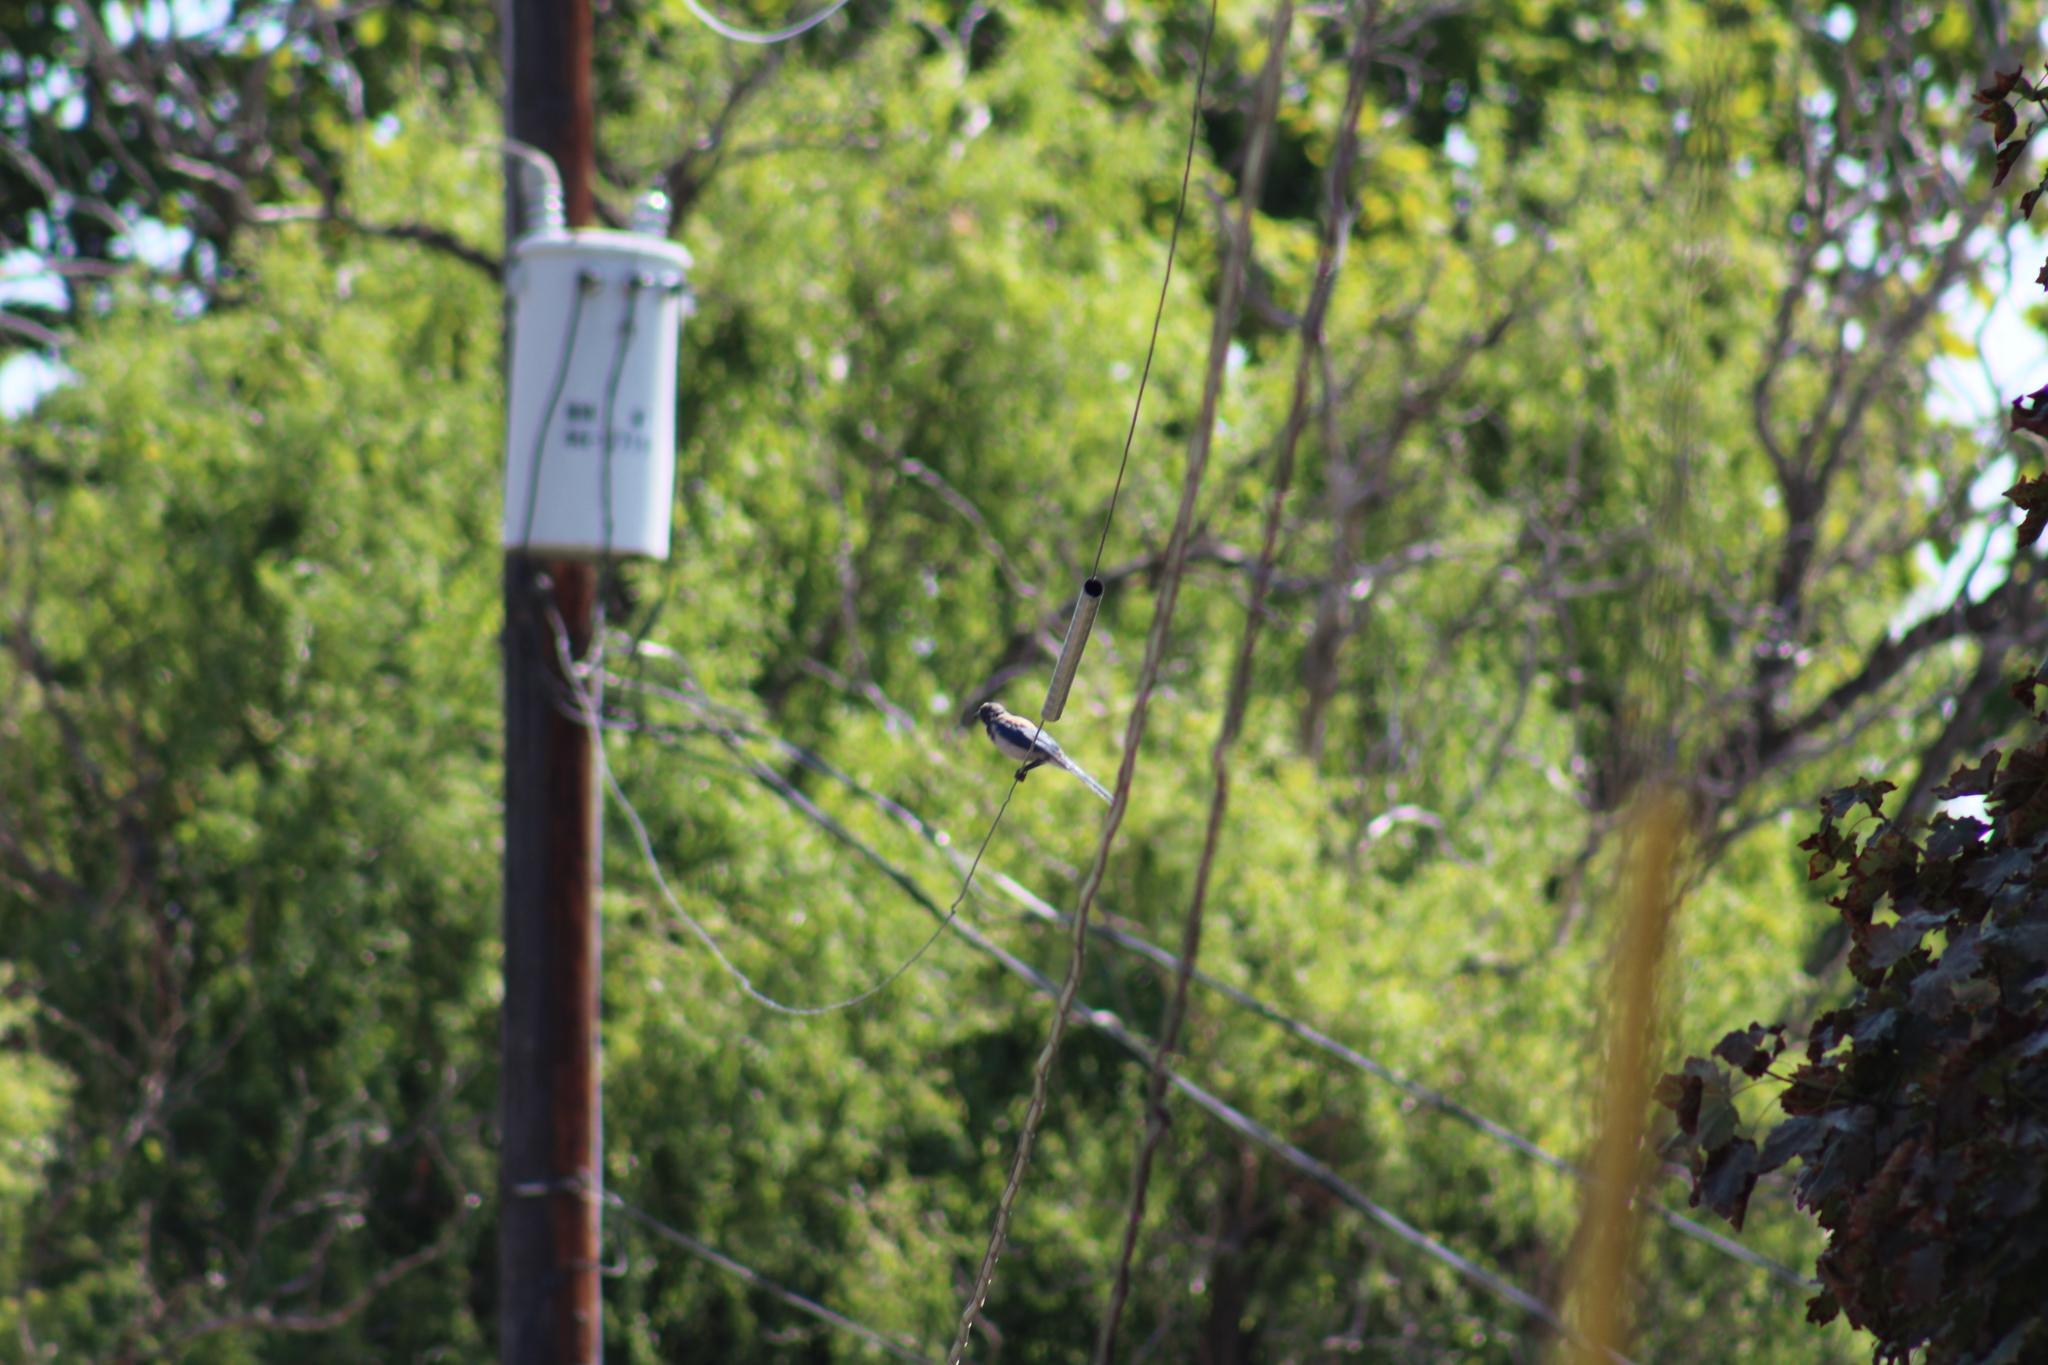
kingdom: Animalia
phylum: Chordata
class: Aves
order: Passeriformes
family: Corvidae
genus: Aphelocoma
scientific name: Aphelocoma californica
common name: California scrub-jay
